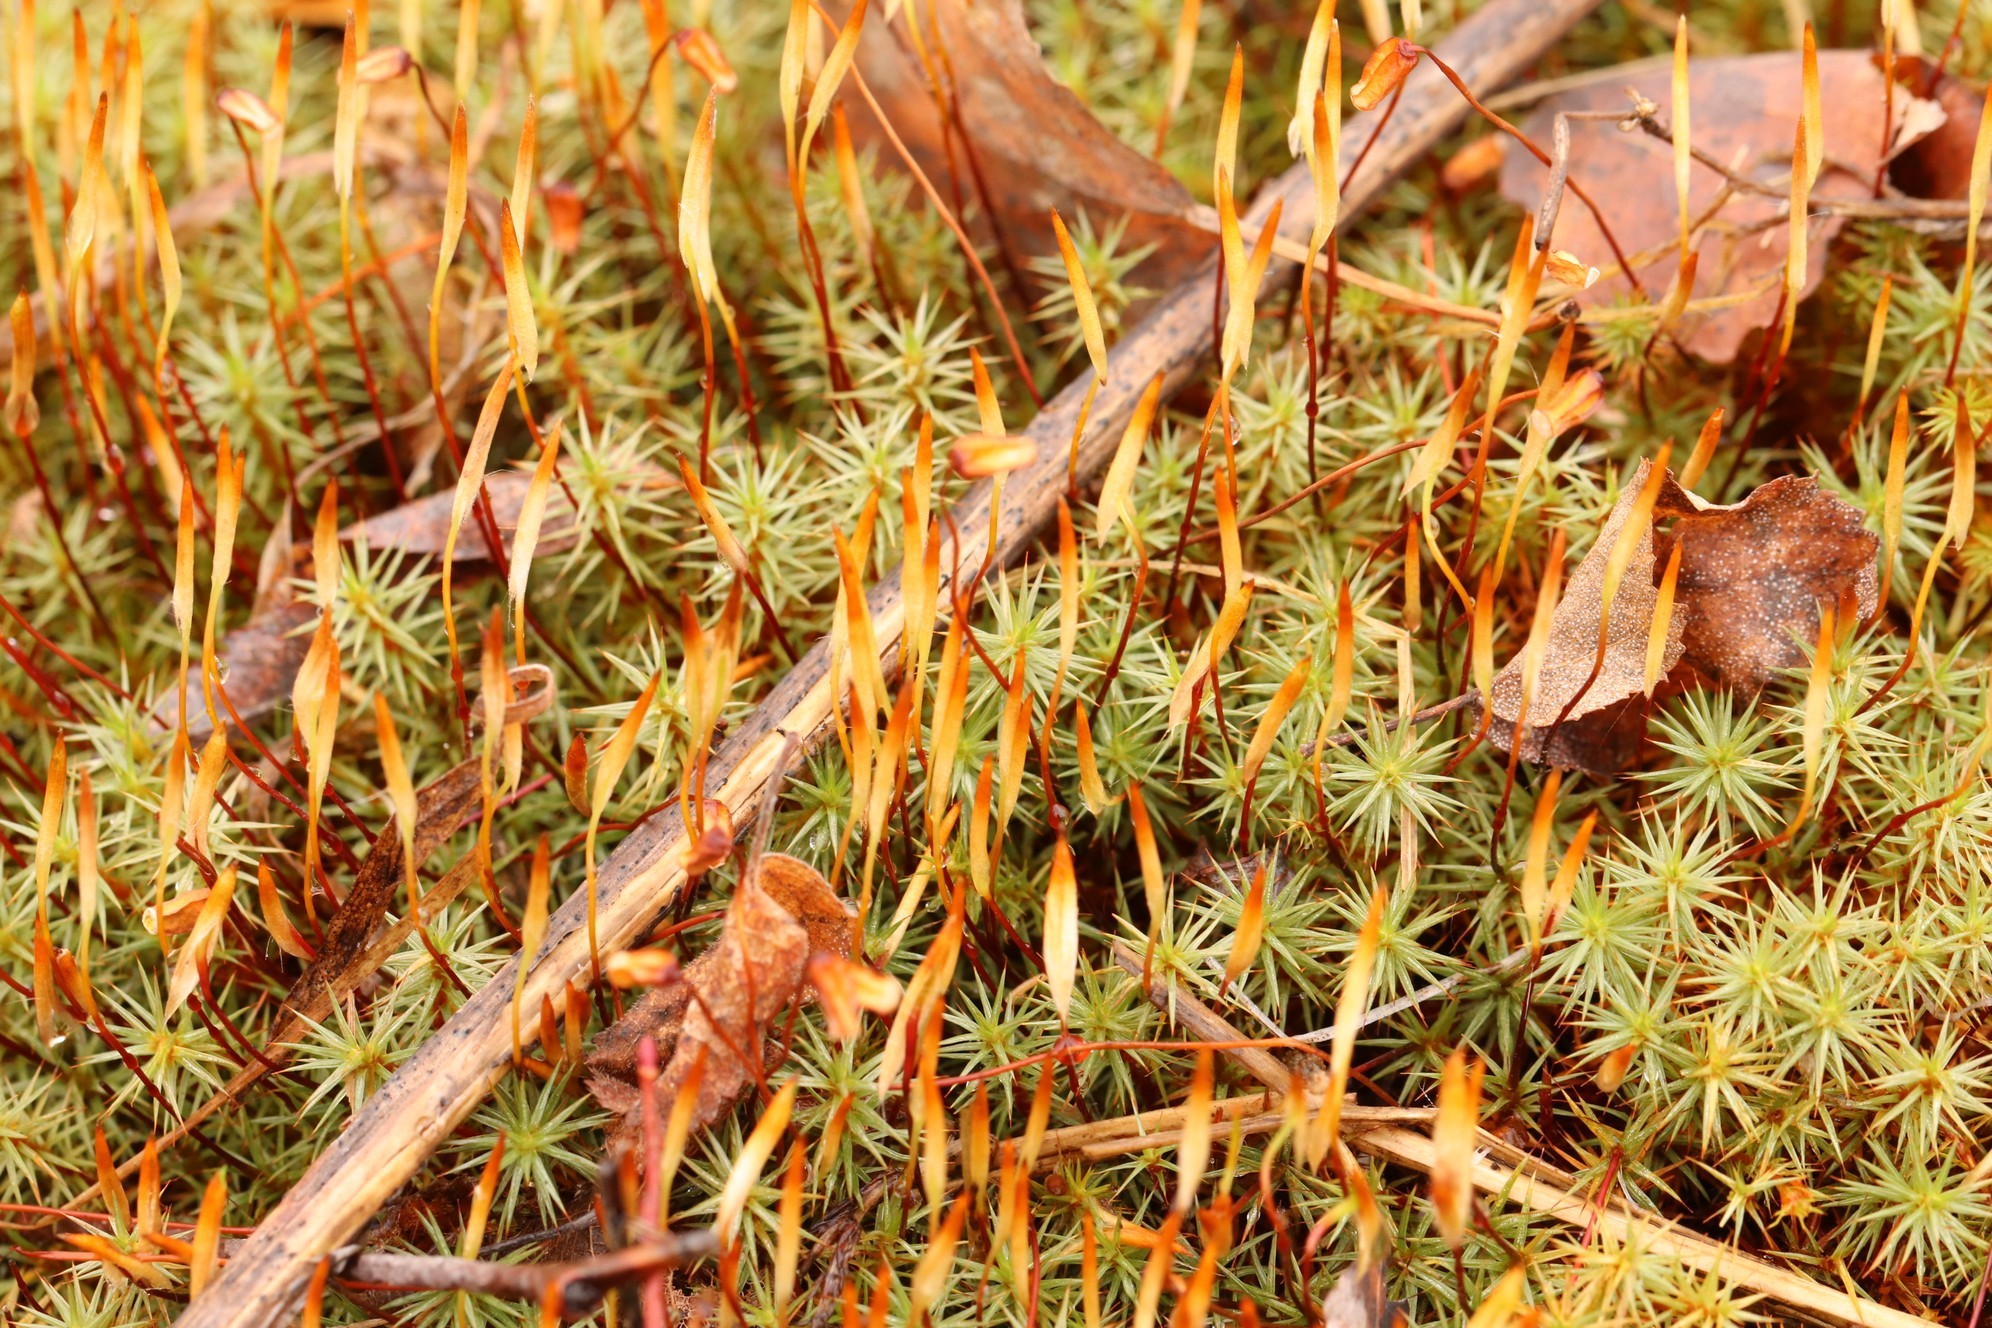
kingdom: Plantae
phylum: Bryophyta
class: Polytrichopsida
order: Polytrichales
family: Polytrichaceae
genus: Polytrichum
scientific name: Polytrichum juniperinum
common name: Juniper haircap moss
